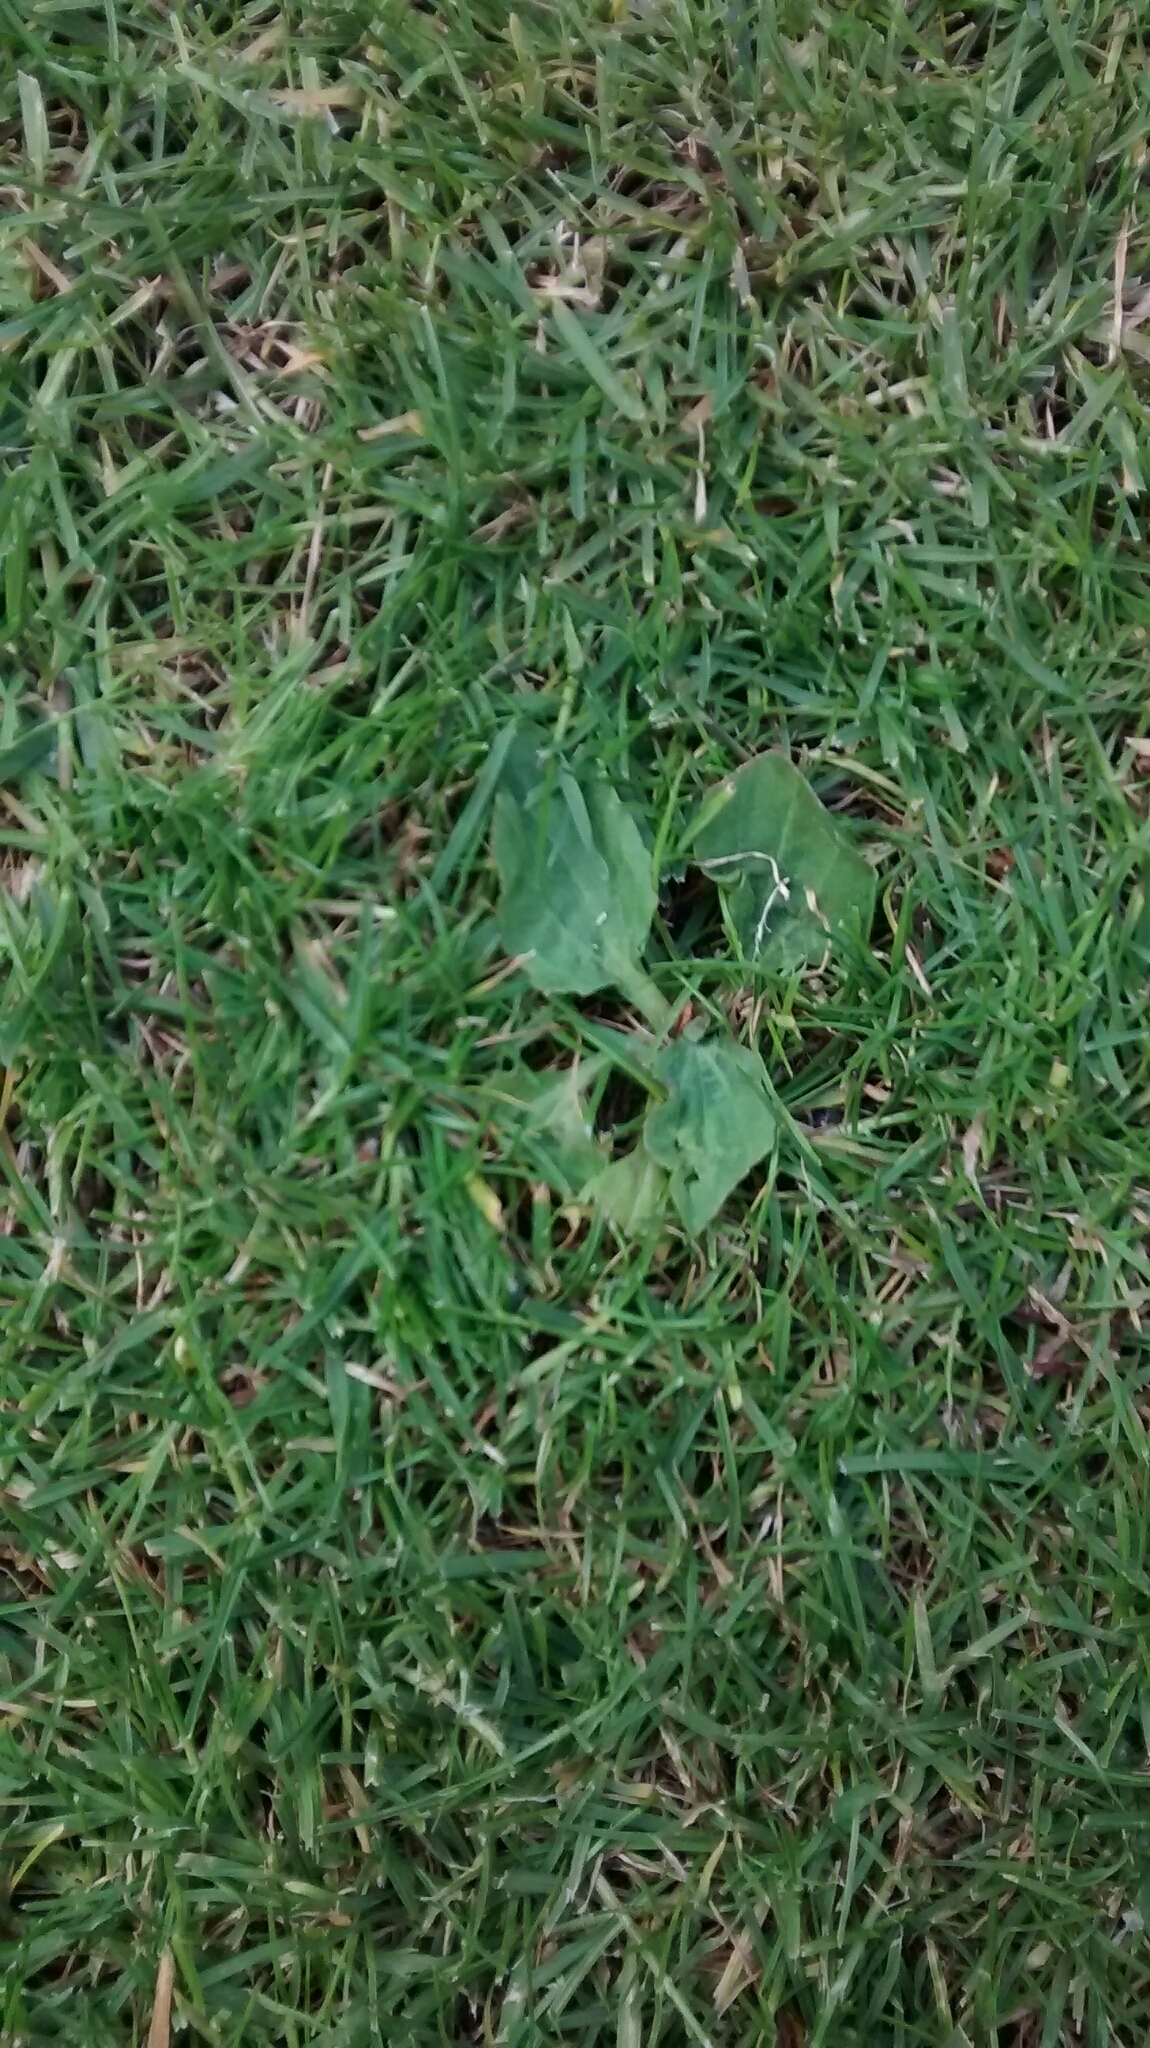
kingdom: Plantae
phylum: Tracheophyta
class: Magnoliopsida
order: Lamiales
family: Plantaginaceae
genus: Plantago
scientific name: Plantago major
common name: Common plantain
